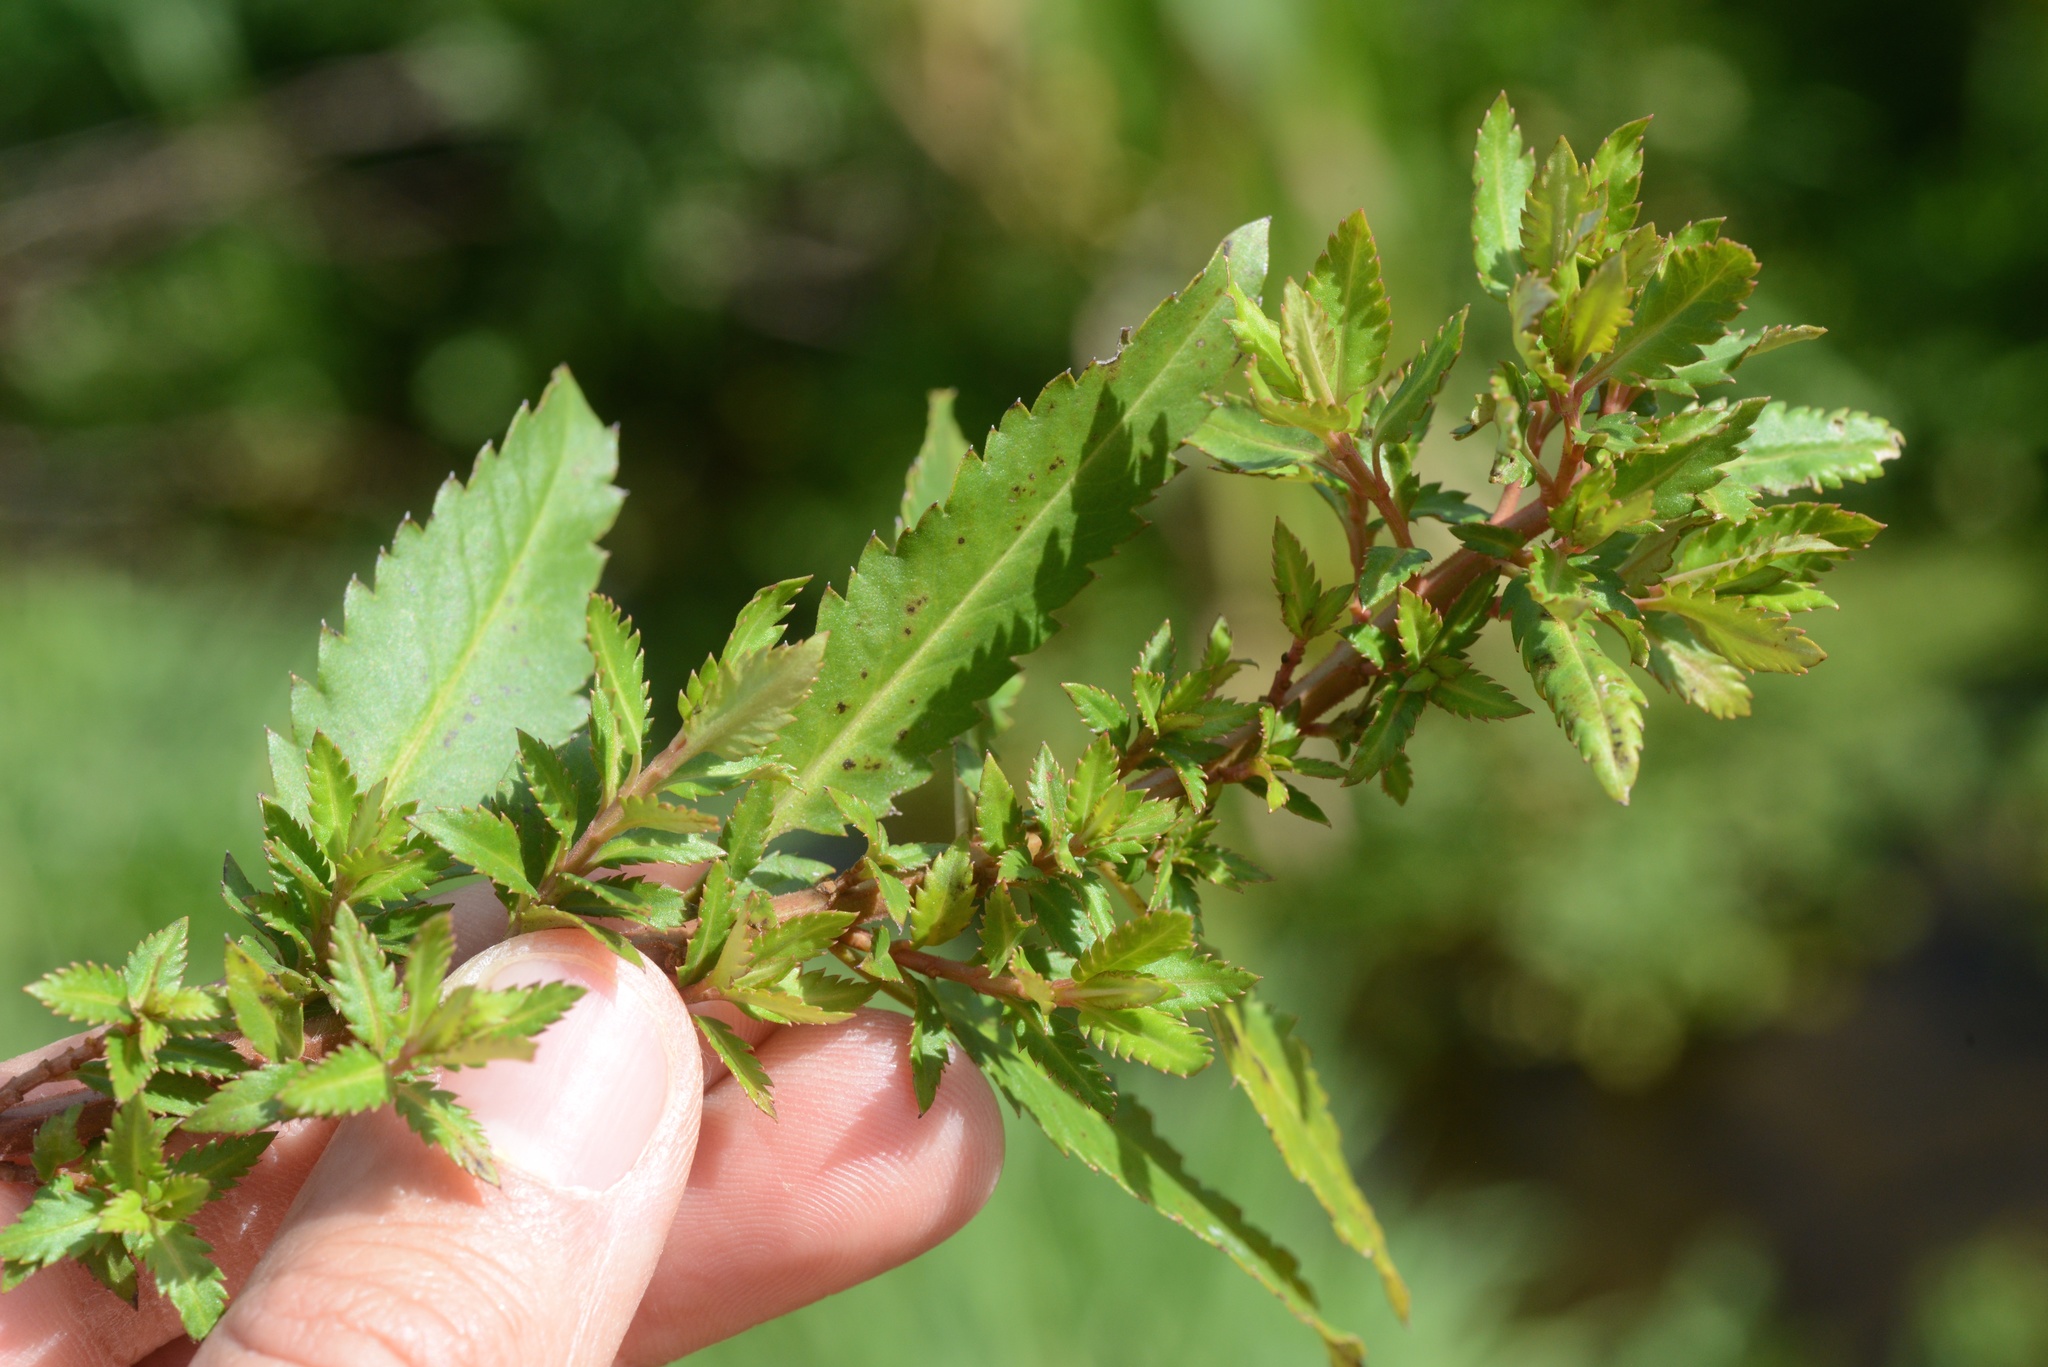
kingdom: Plantae
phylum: Tracheophyta
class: Magnoliopsida
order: Saxifragales
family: Haloragaceae
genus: Haloragis
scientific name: Haloragis erecta
